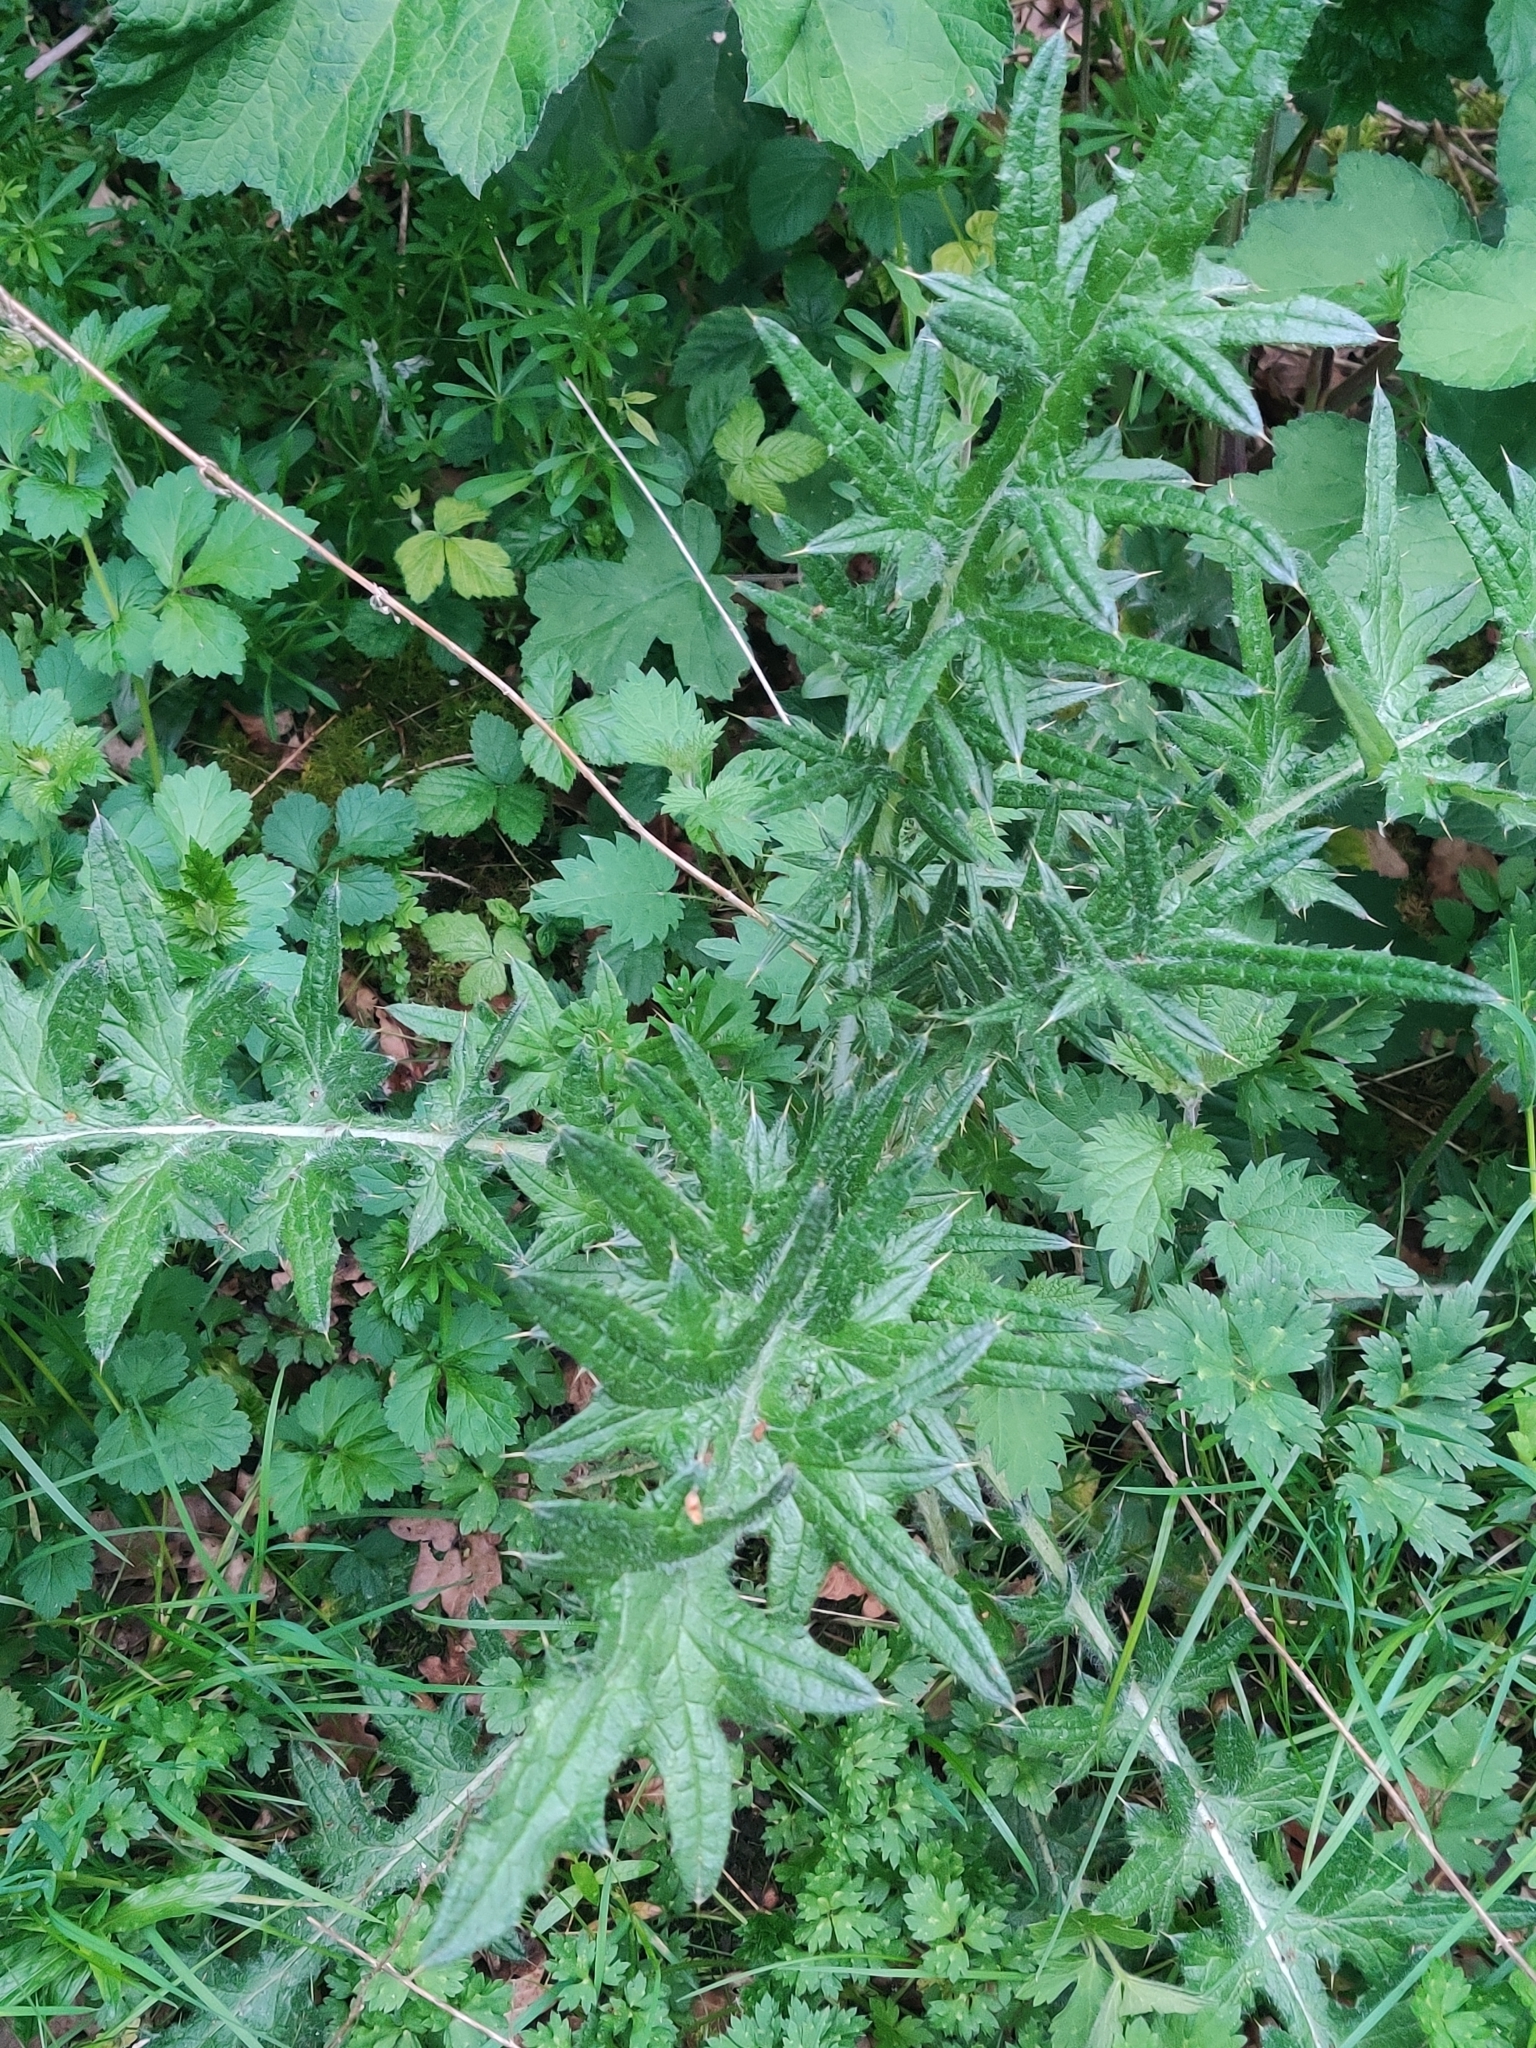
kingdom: Plantae
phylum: Tracheophyta
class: Magnoliopsida
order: Asterales
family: Asteraceae
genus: Cirsium
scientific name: Cirsium vulgare
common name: Bull thistle
